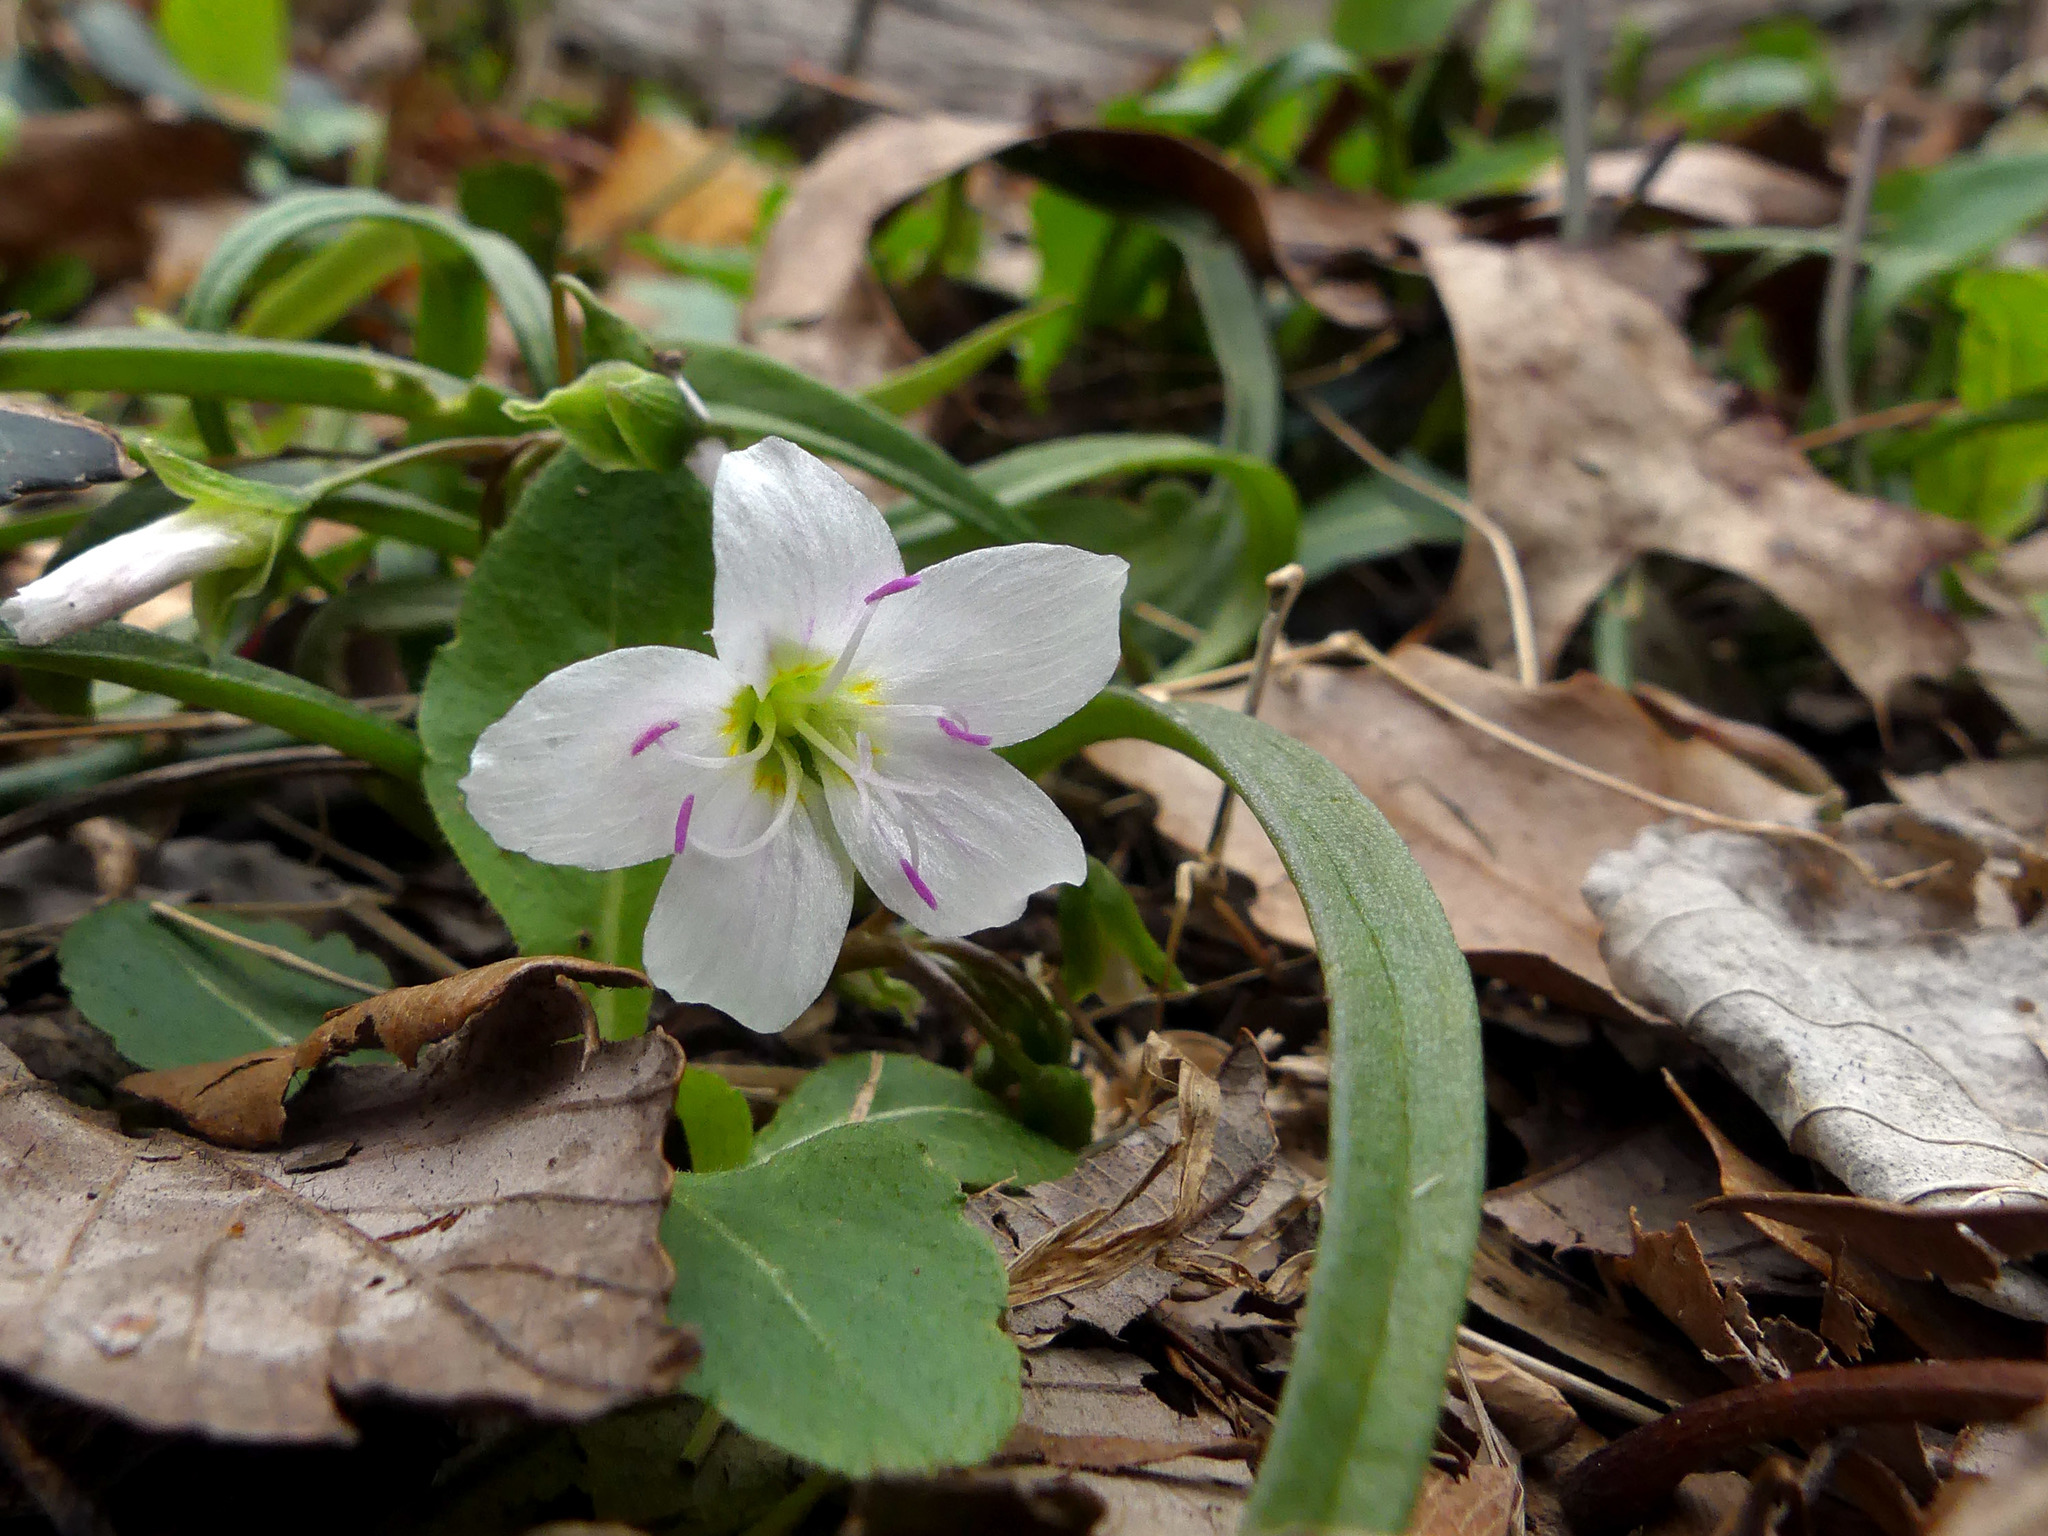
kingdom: Plantae
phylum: Tracheophyta
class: Magnoliopsida
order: Caryophyllales
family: Montiaceae
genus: Claytonia
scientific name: Claytonia virginica
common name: Virginia springbeauty
